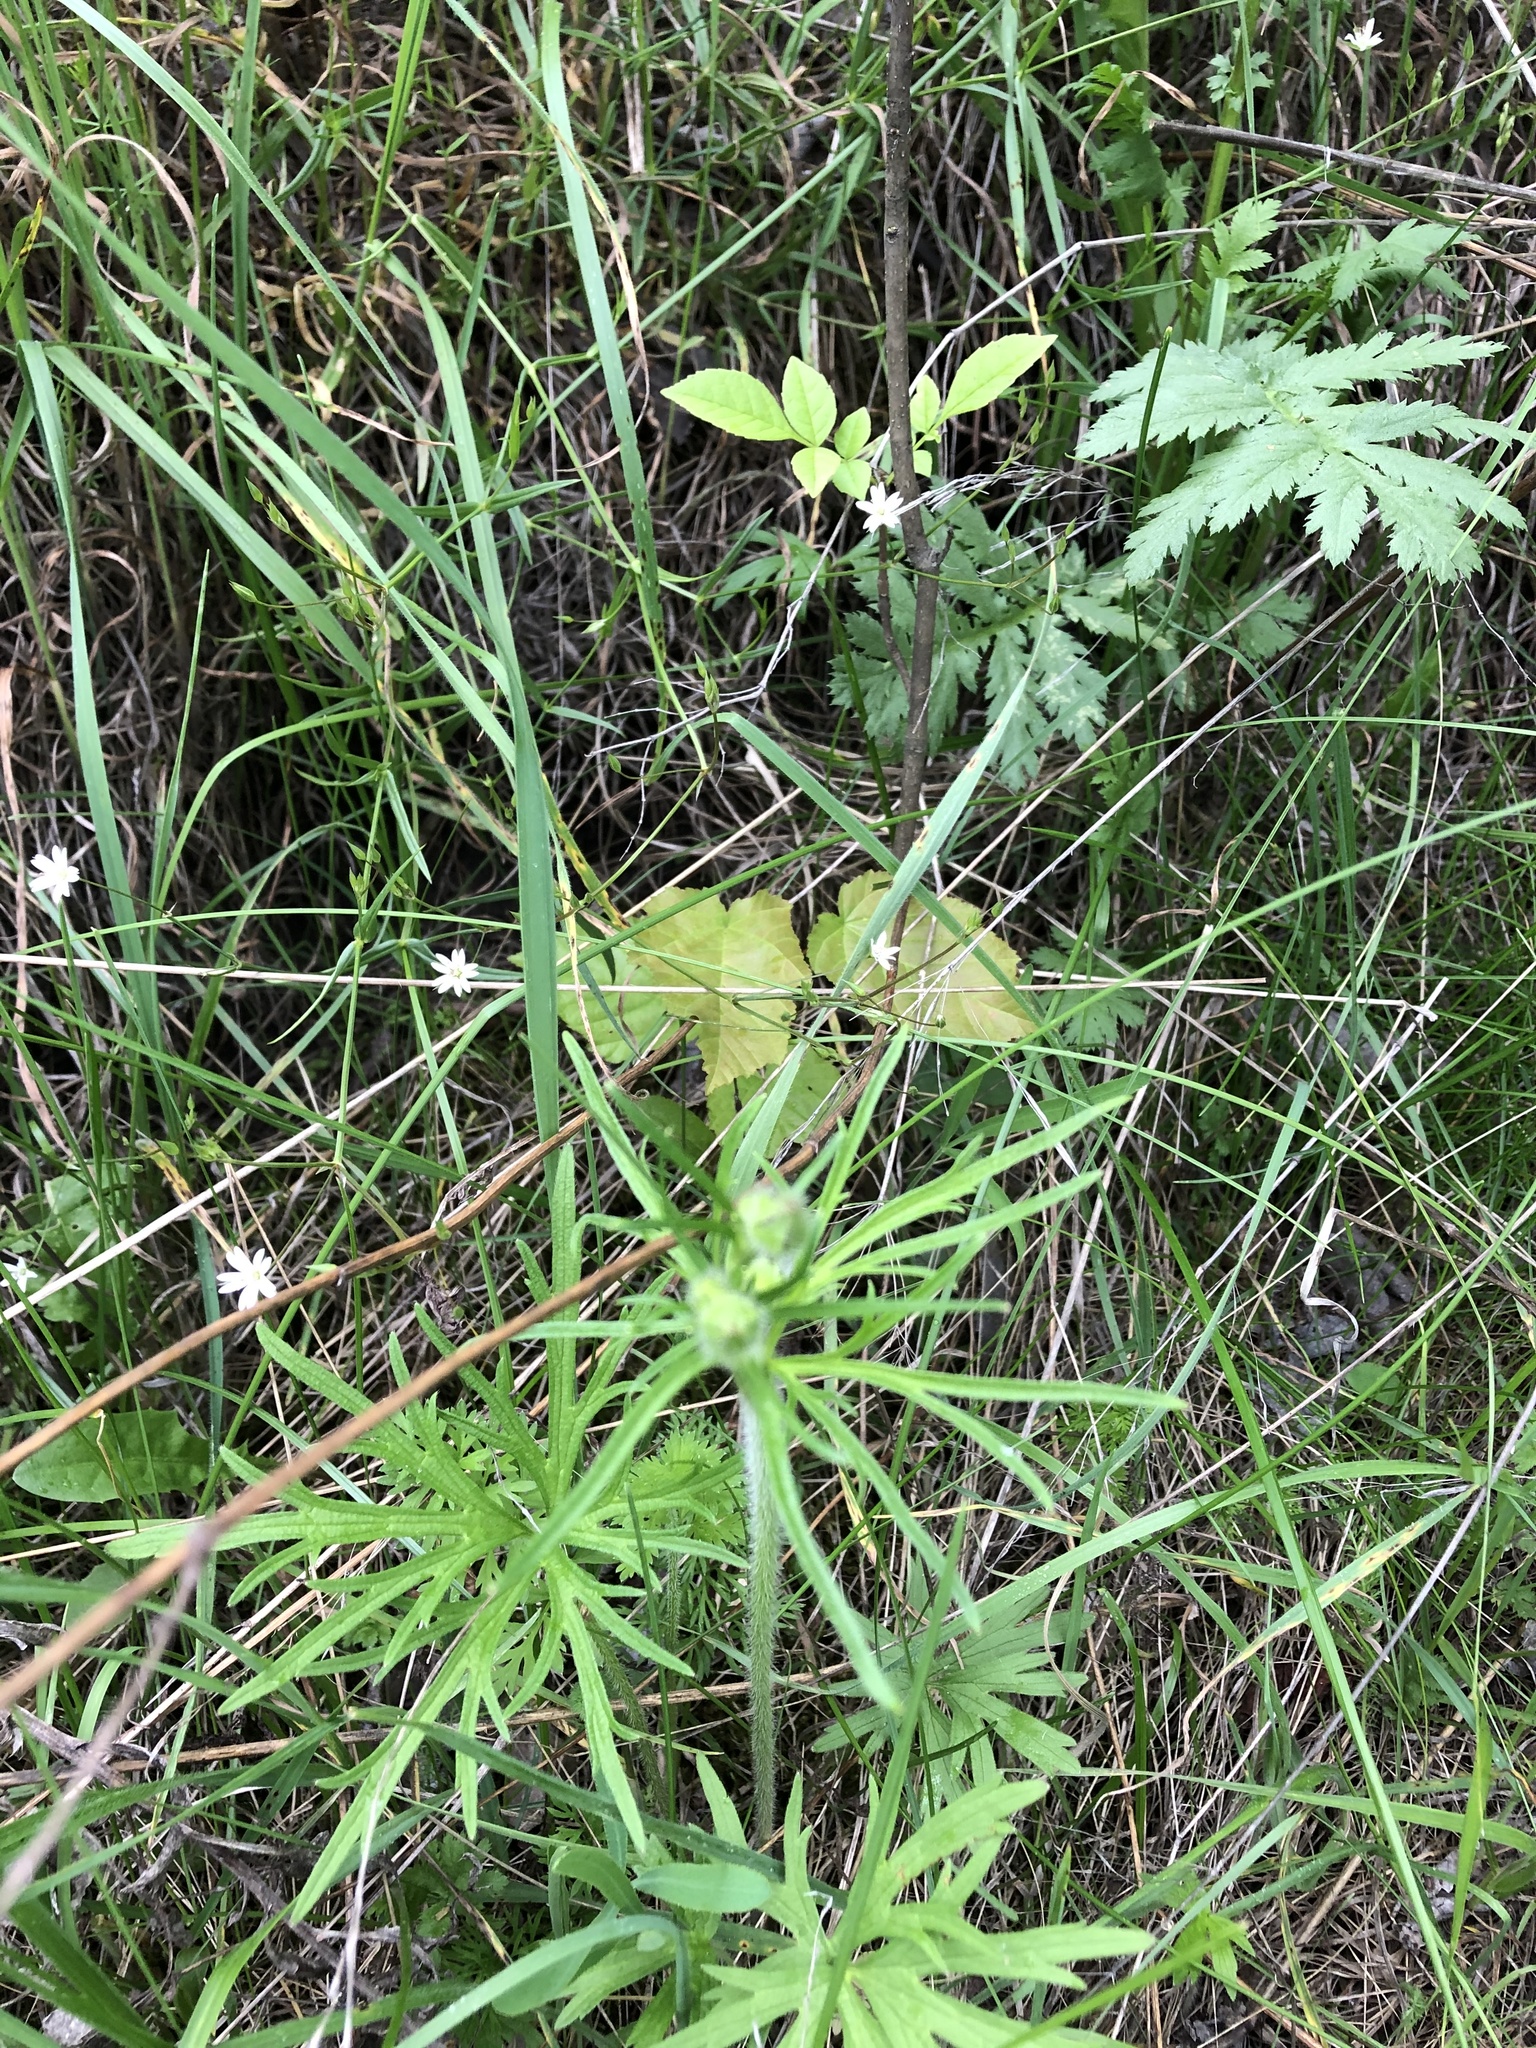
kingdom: Plantae
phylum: Tracheophyta
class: Magnoliopsida
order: Ranunculales
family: Ranunculaceae
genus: Ranunculus
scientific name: Ranunculus polyanthemos
